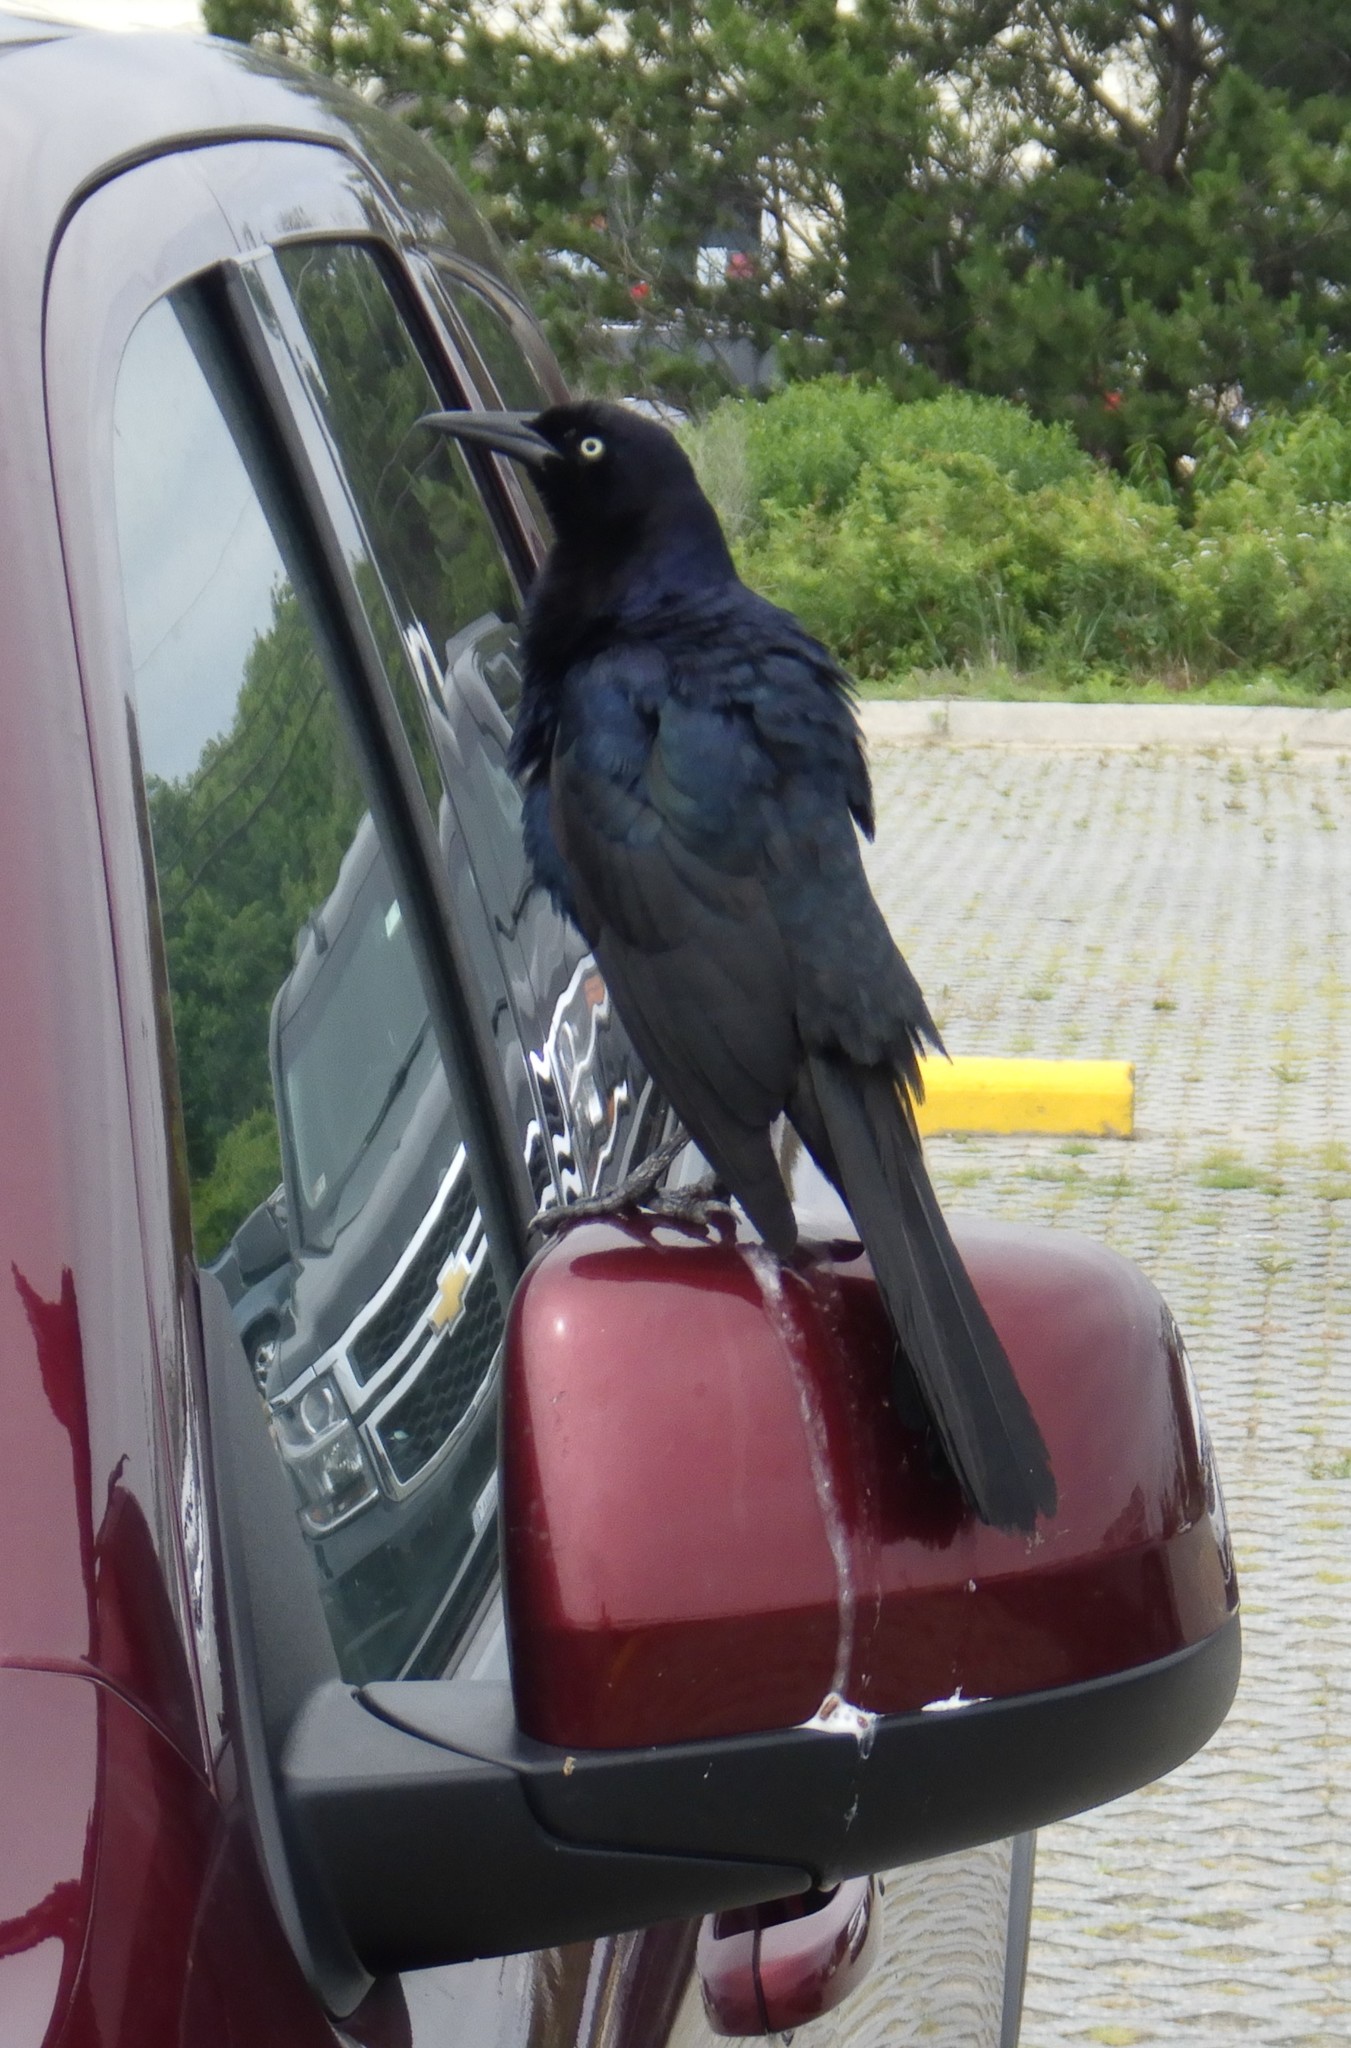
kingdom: Animalia
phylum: Chordata
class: Aves
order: Passeriformes
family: Icteridae
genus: Quiscalus
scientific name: Quiscalus major
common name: Boat-tailed grackle
